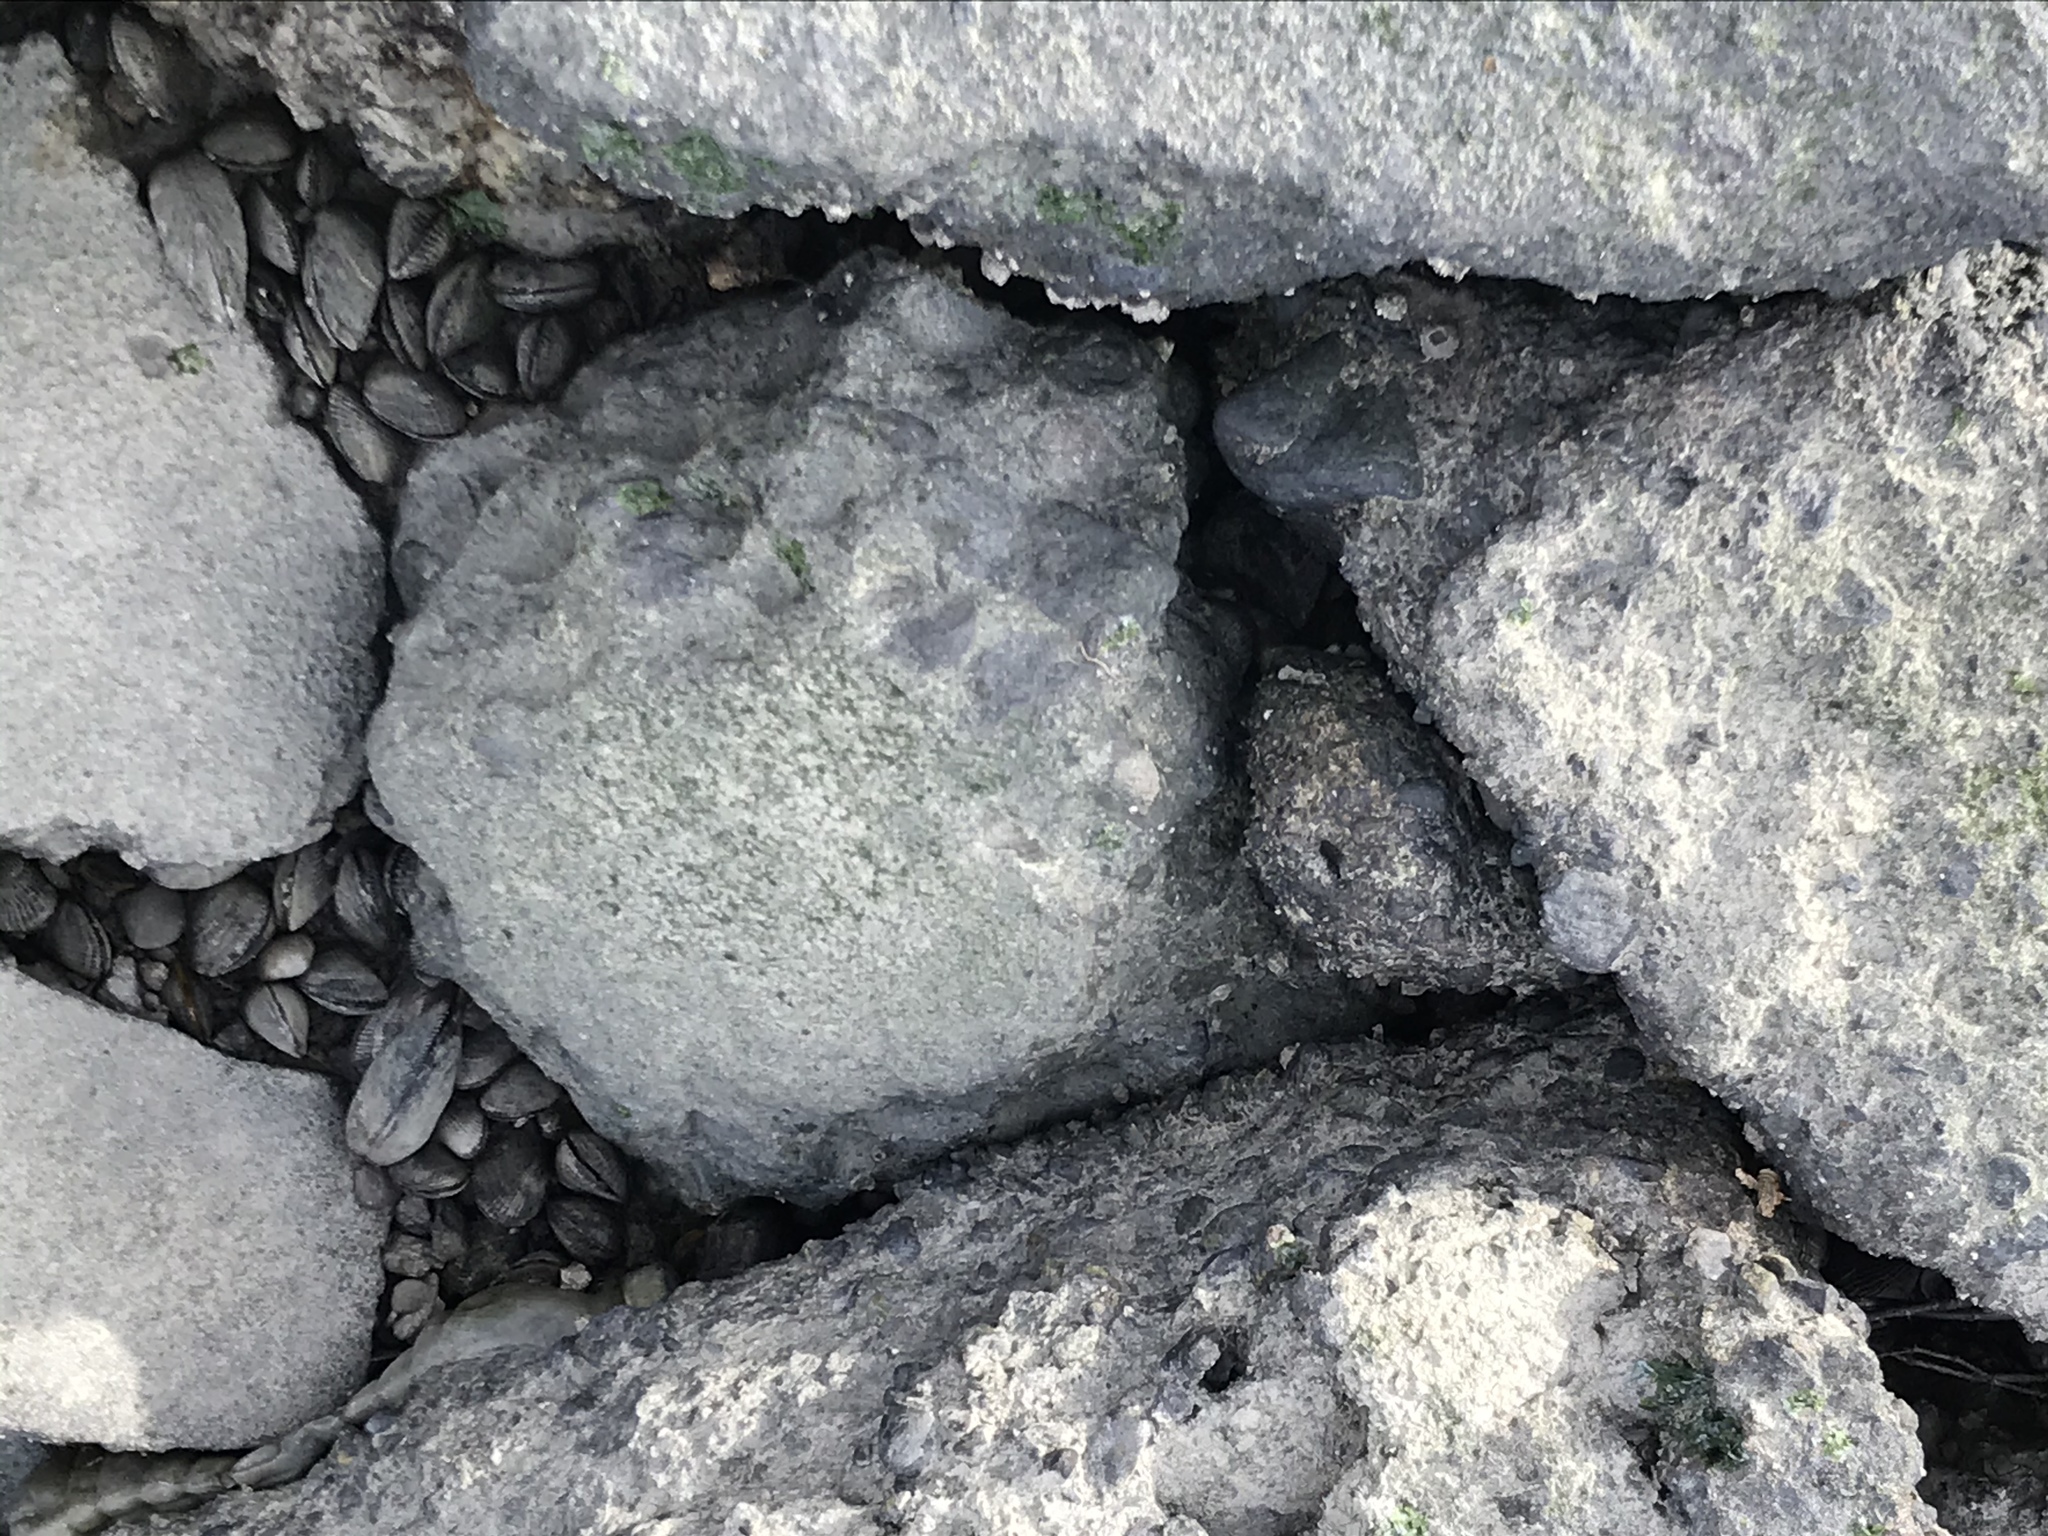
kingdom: Animalia
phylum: Mollusca
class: Bivalvia
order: Mytilida
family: Mytilidae
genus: Geukensia
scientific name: Geukensia demissa
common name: Ribbed mussel
